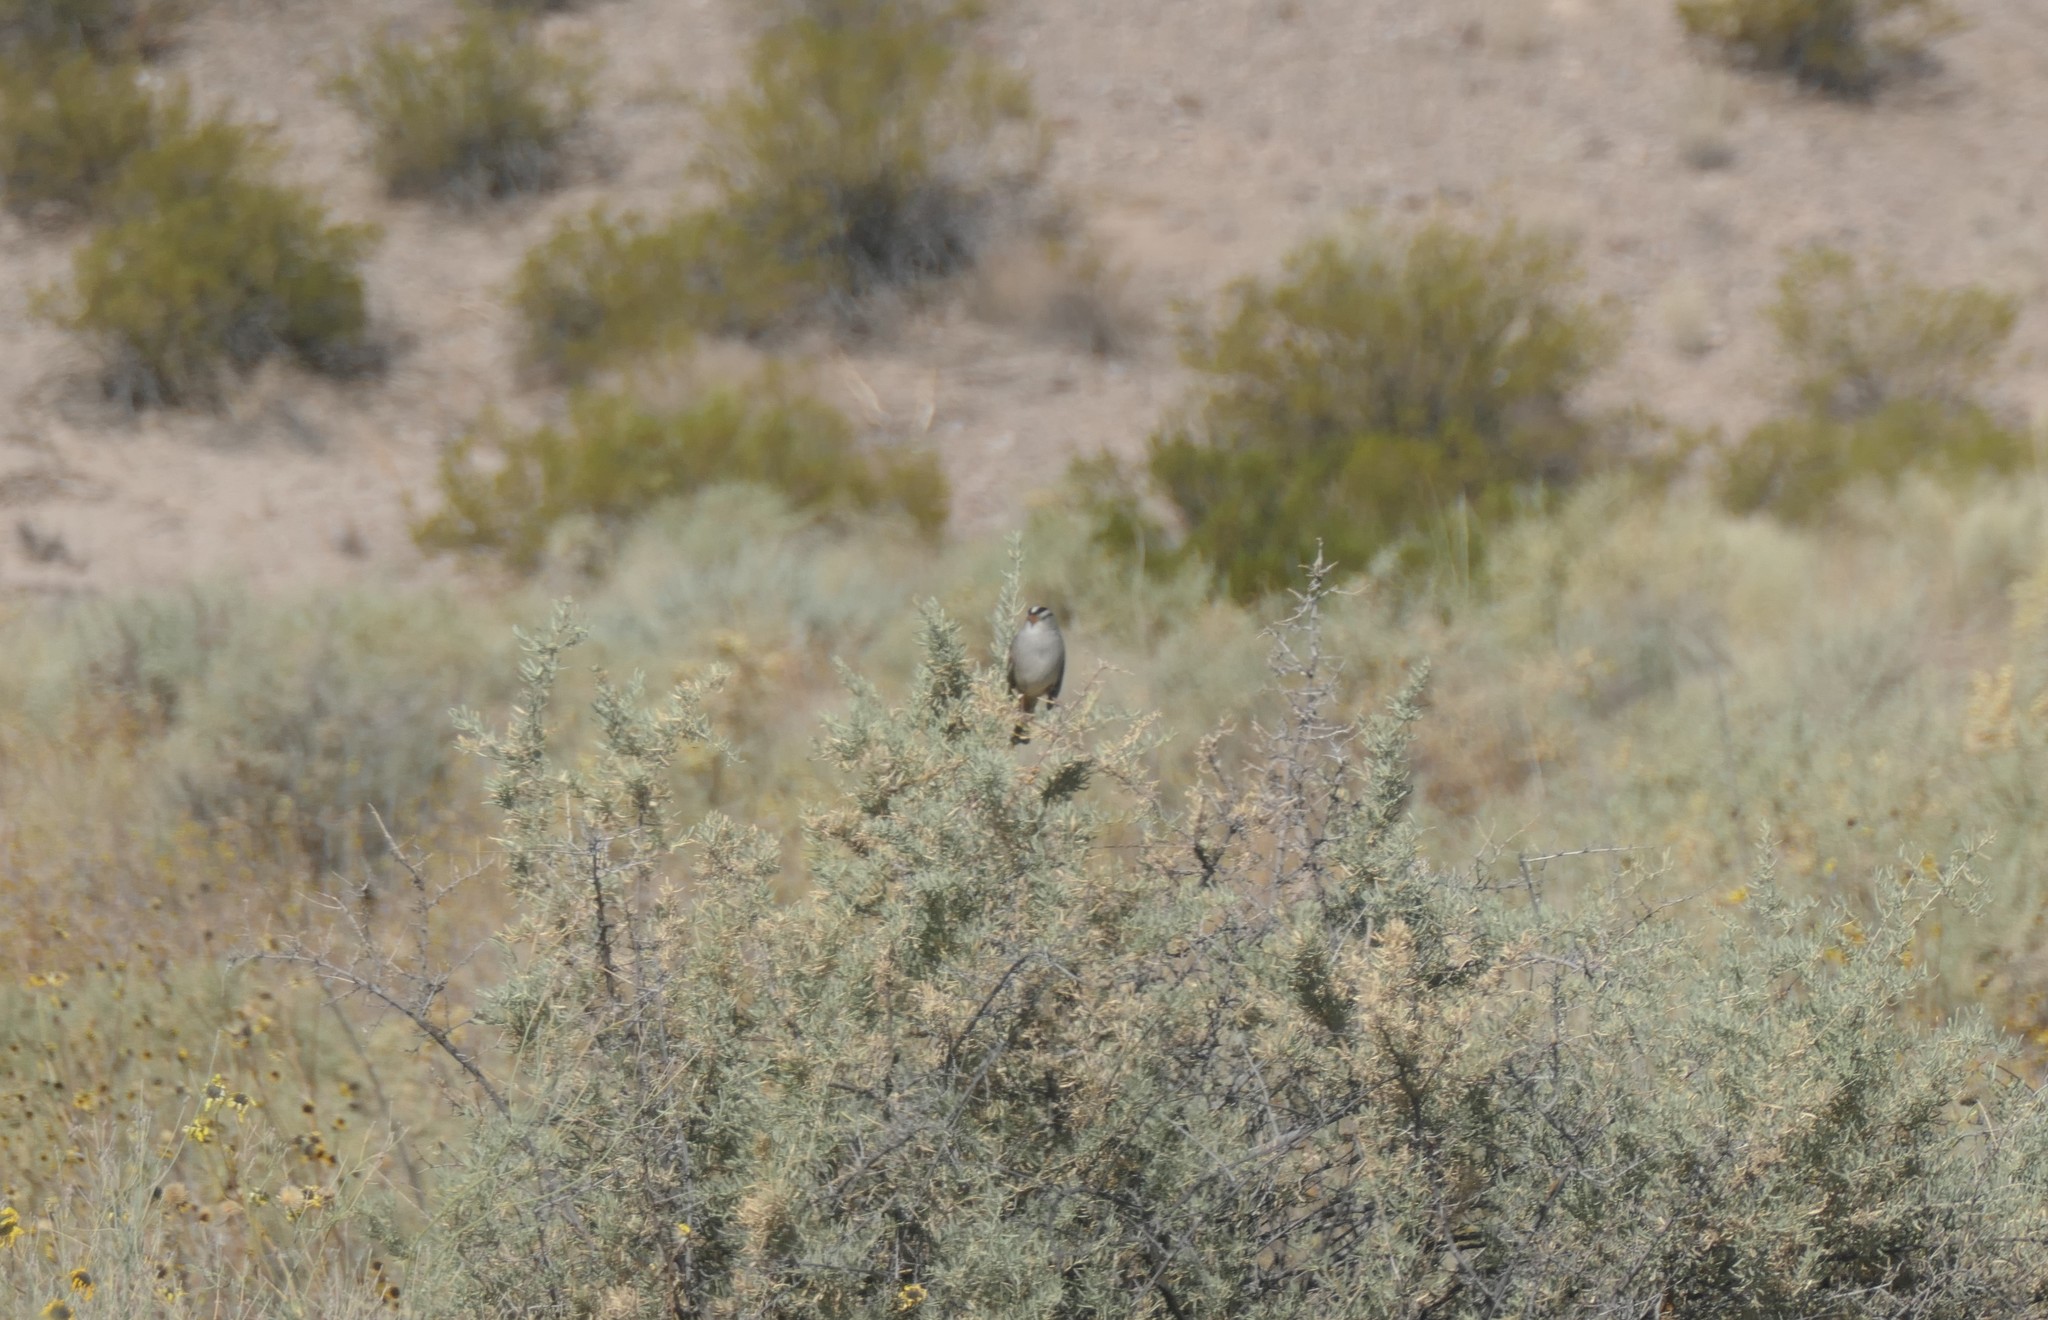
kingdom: Animalia
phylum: Chordata
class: Aves
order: Passeriformes
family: Passerellidae
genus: Zonotrichia
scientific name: Zonotrichia leucophrys
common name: White-crowned sparrow
